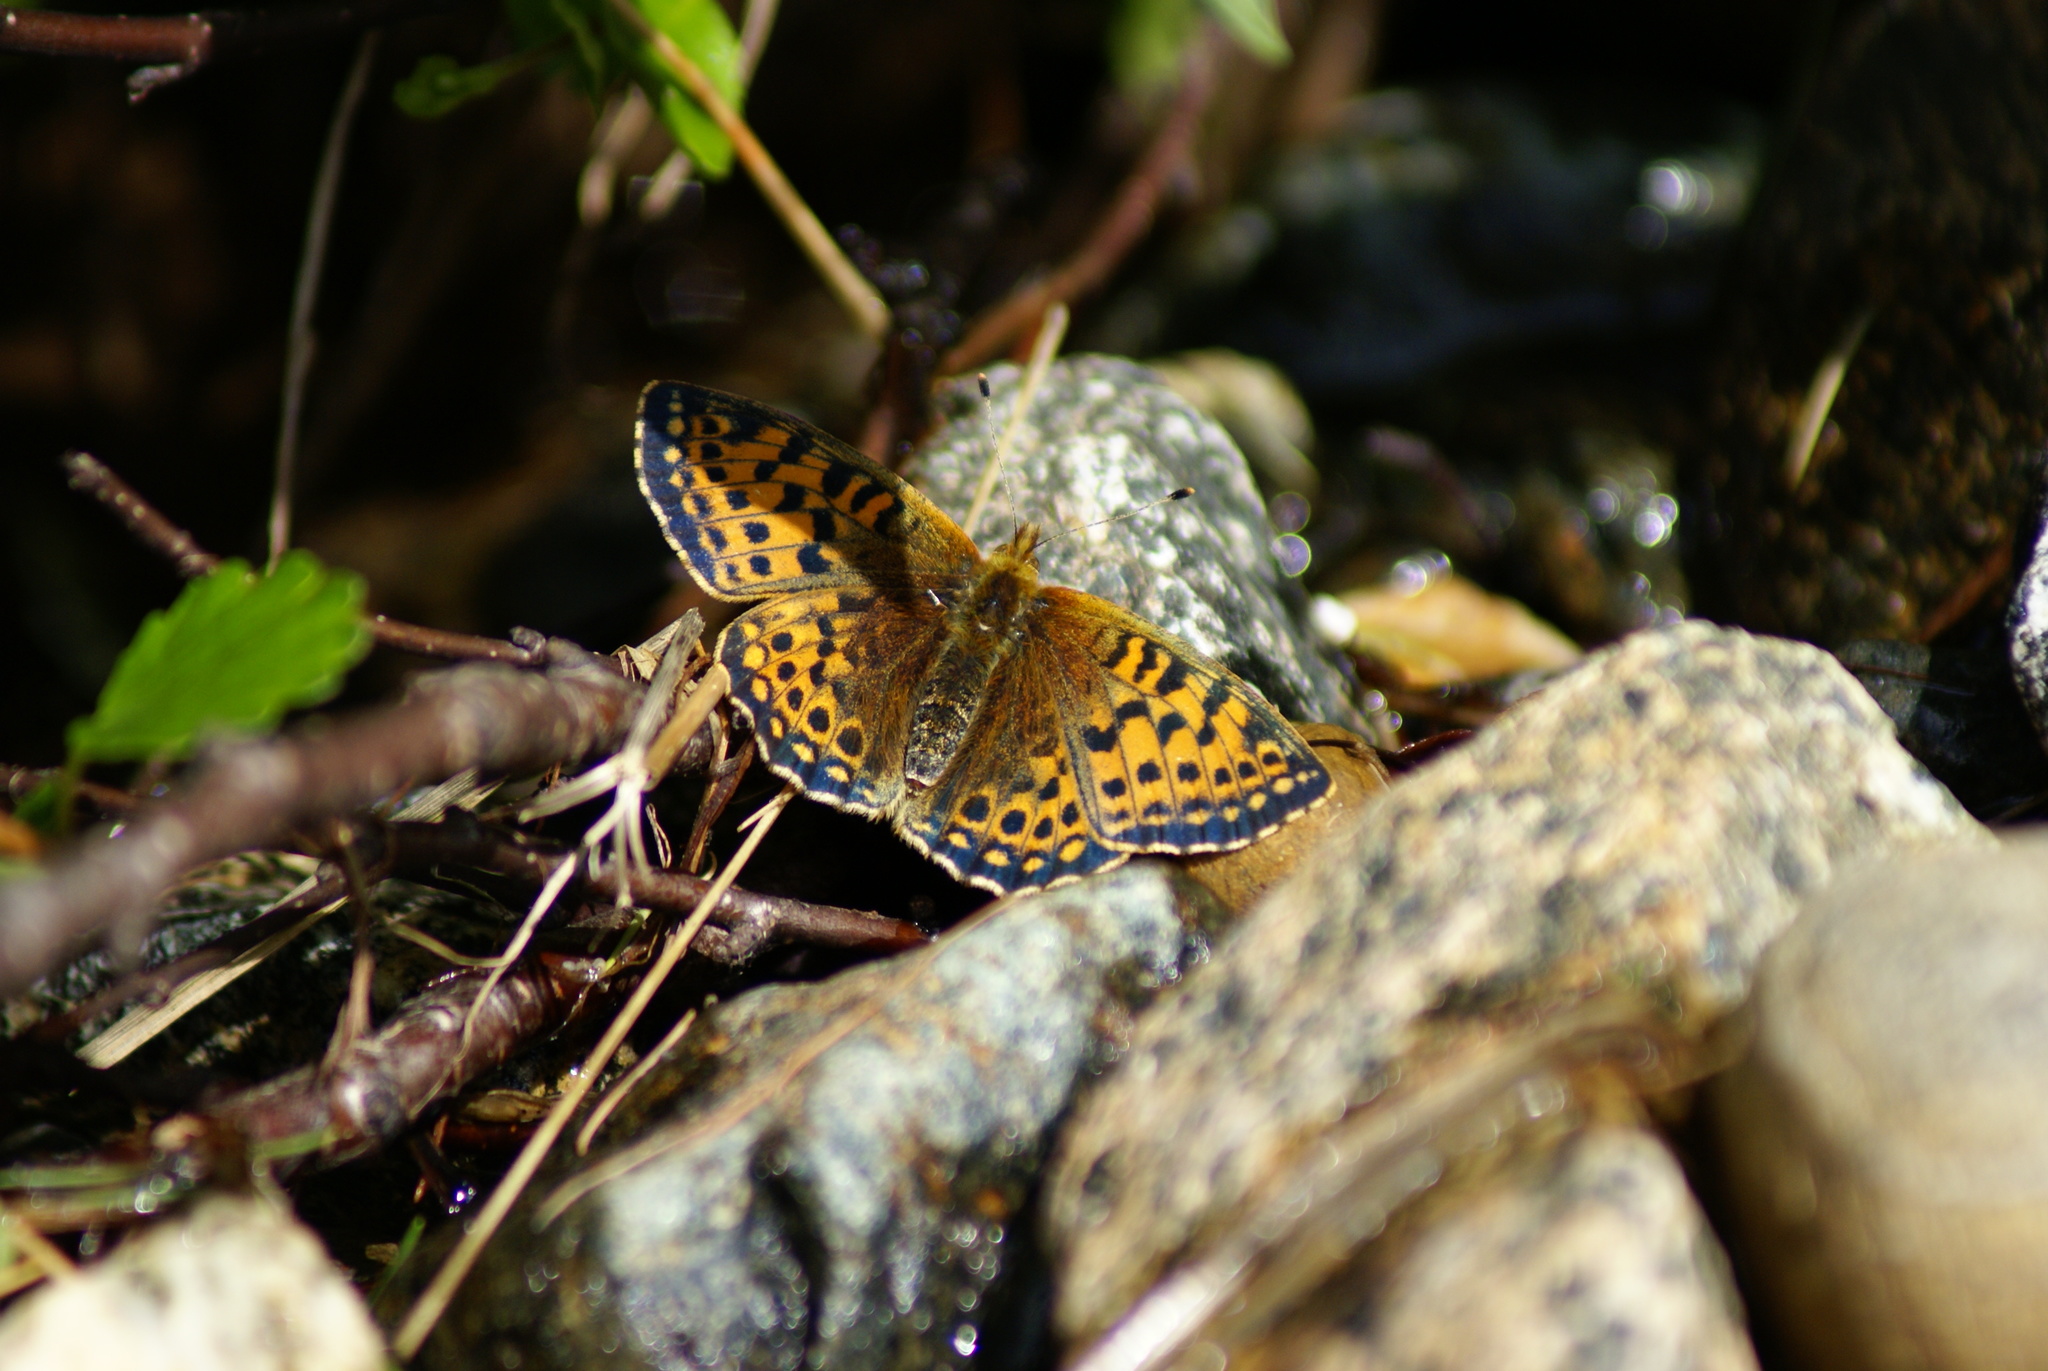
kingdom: Animalia
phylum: Arthropoda
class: Insecta
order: Lepidoptera
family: Nymphalidae
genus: Issoria
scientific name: Issoria eugenia
